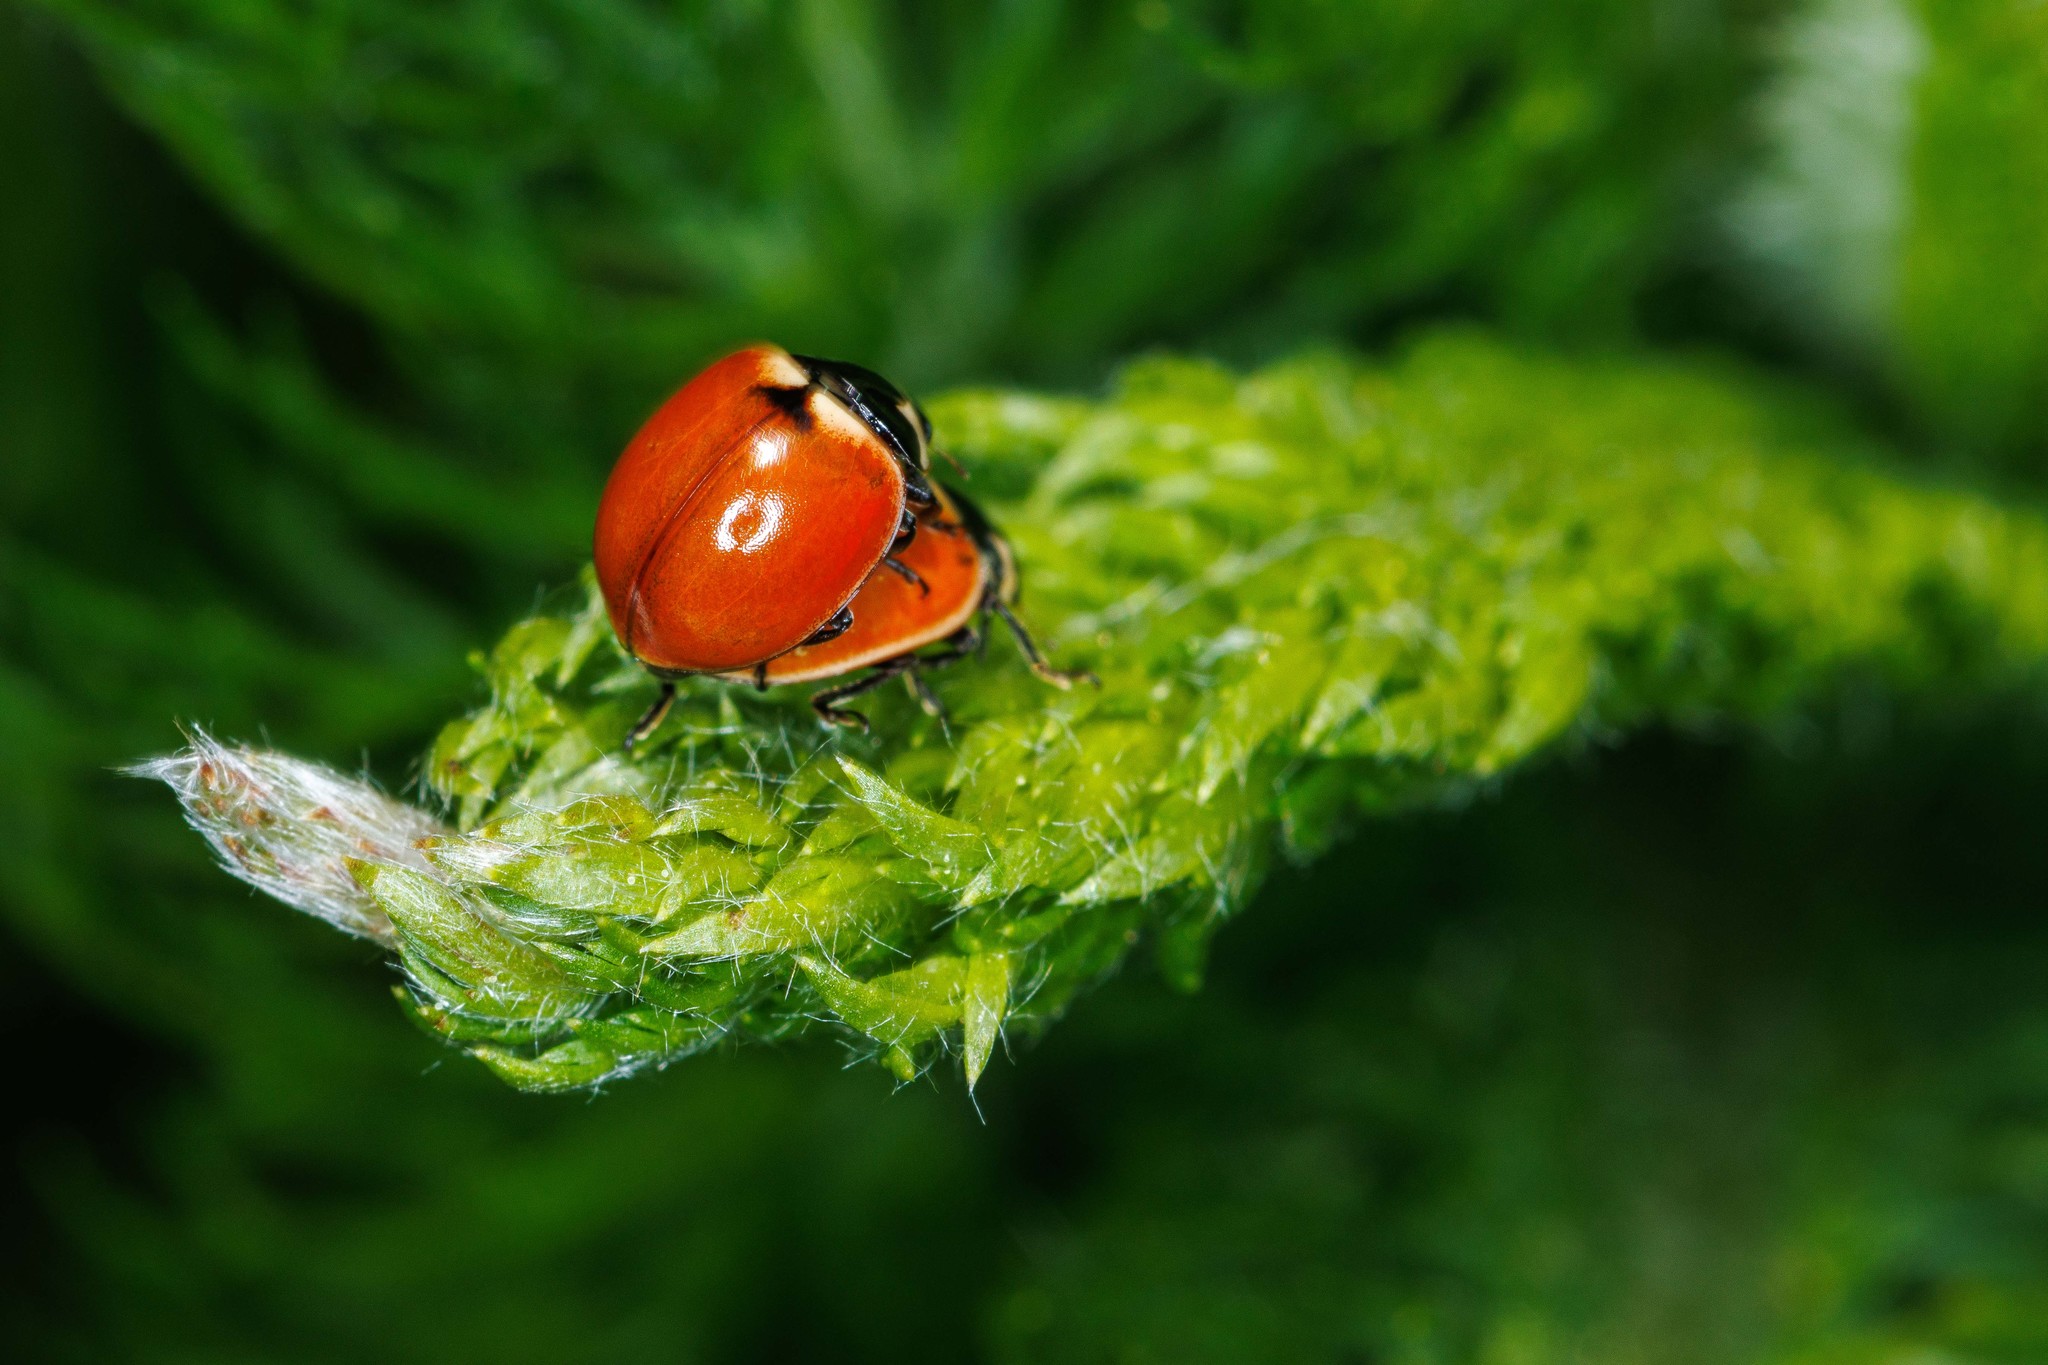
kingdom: Animalia
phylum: Arthropoda
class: Insecta
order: Coleoptera
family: Coccinellidae
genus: Coccinella
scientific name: Coccinella trifasciata
